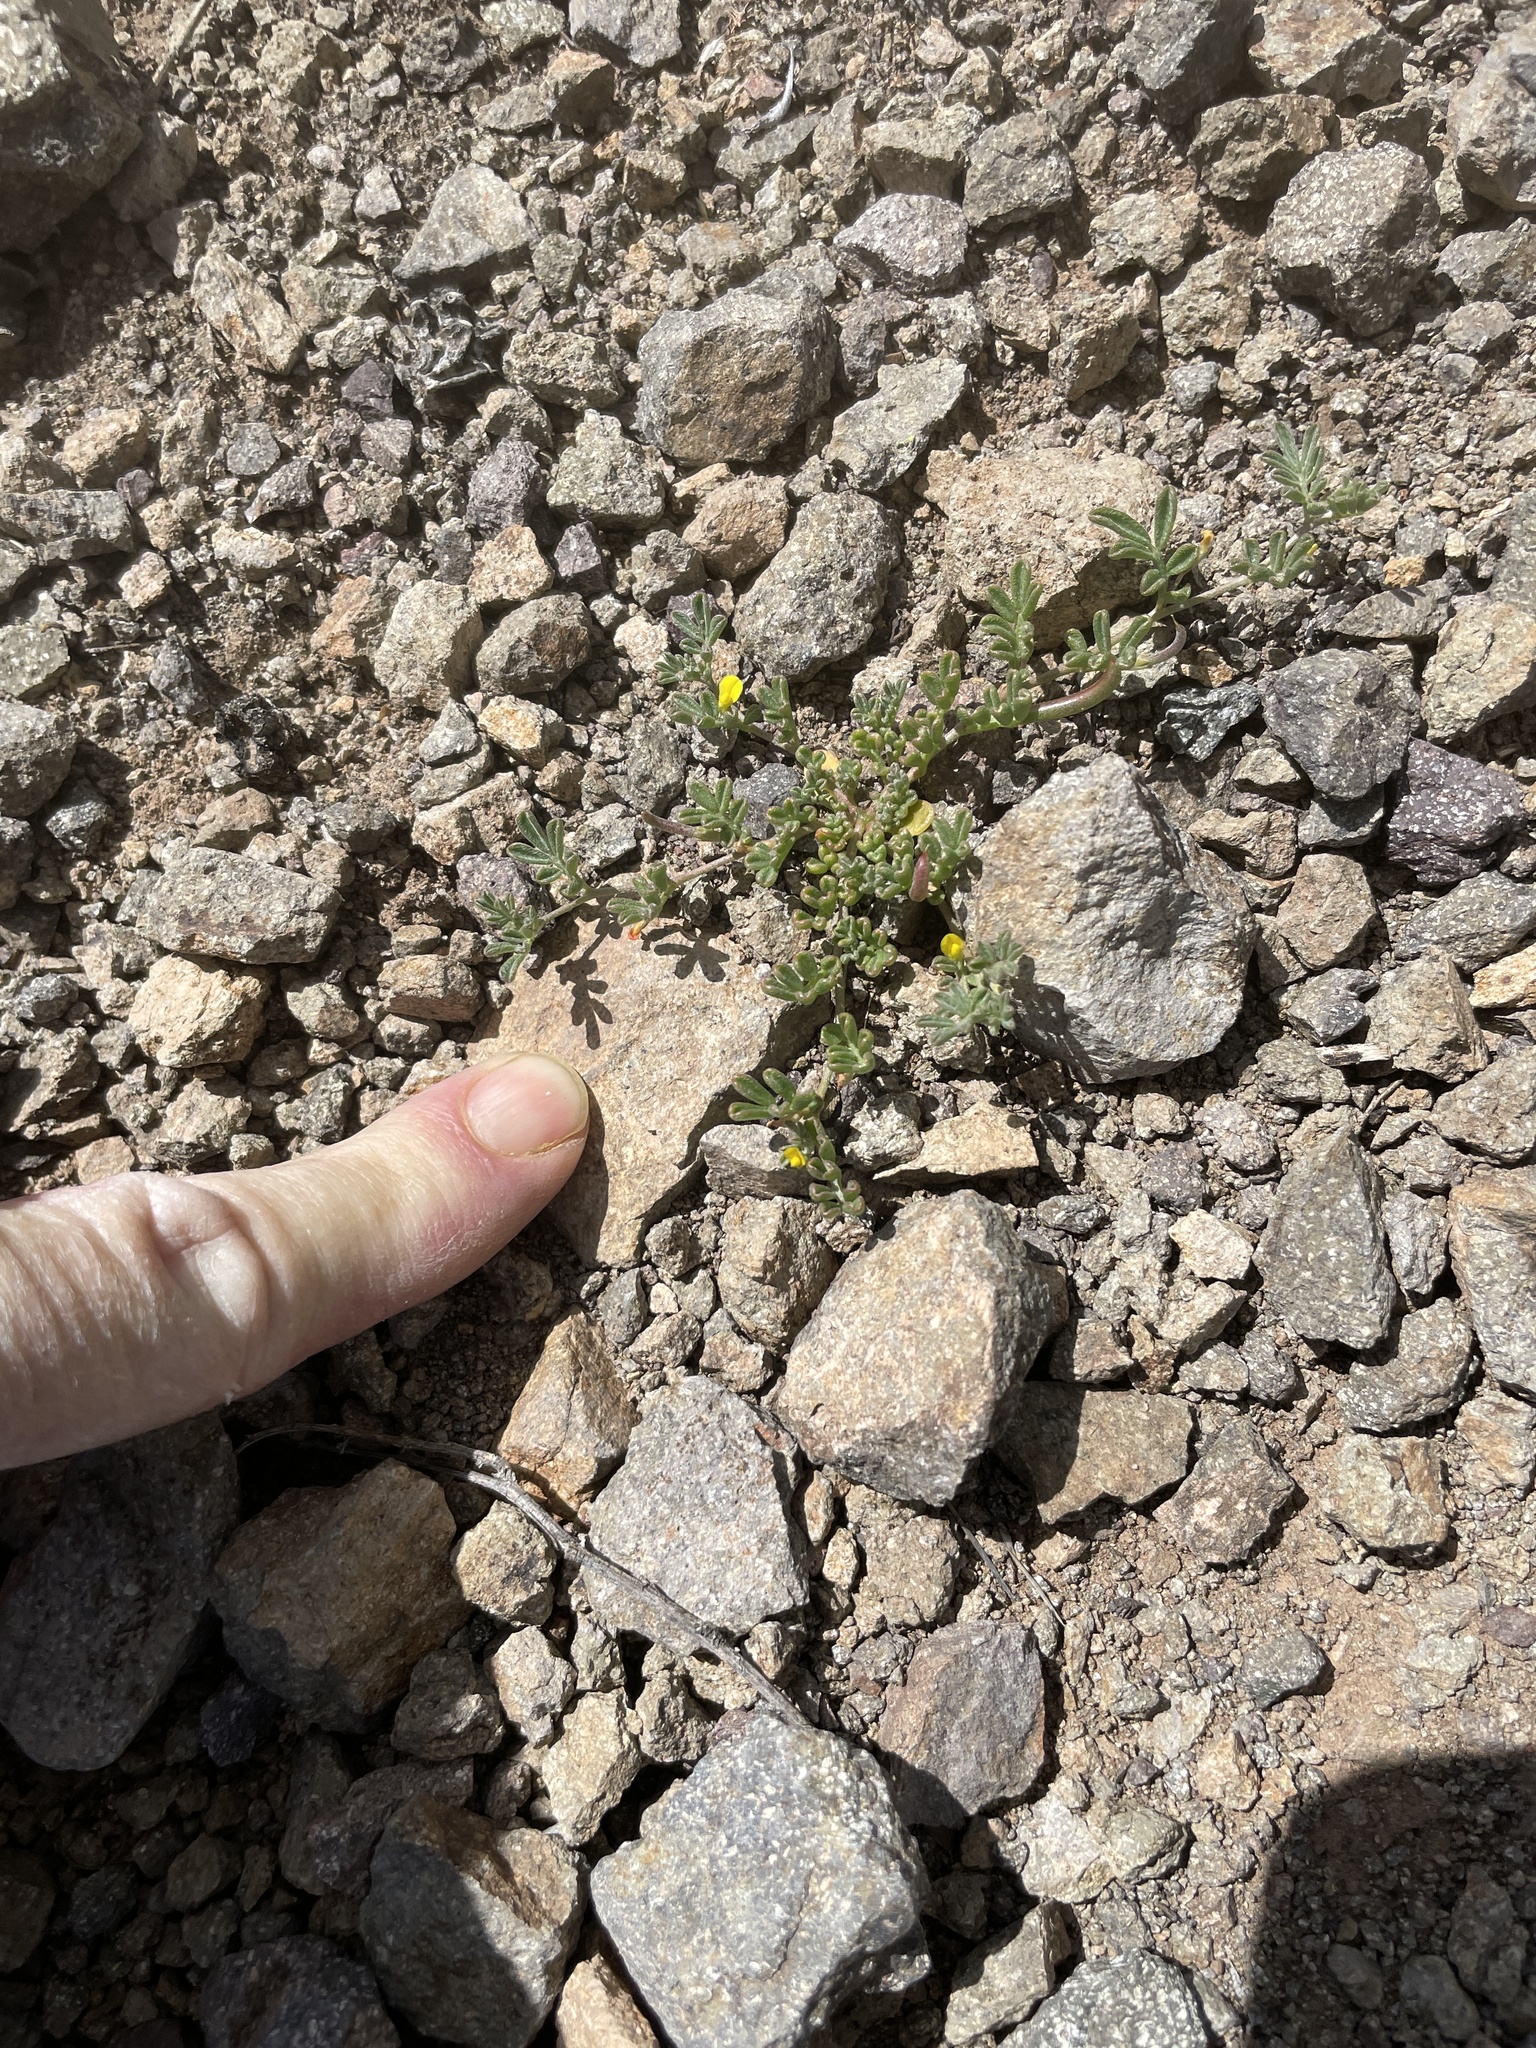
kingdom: Plantae
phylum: Tracheophyta
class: Magnoliopsida
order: Fabales
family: Fabaceae
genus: Acmispon
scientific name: Acmispon strigosus
